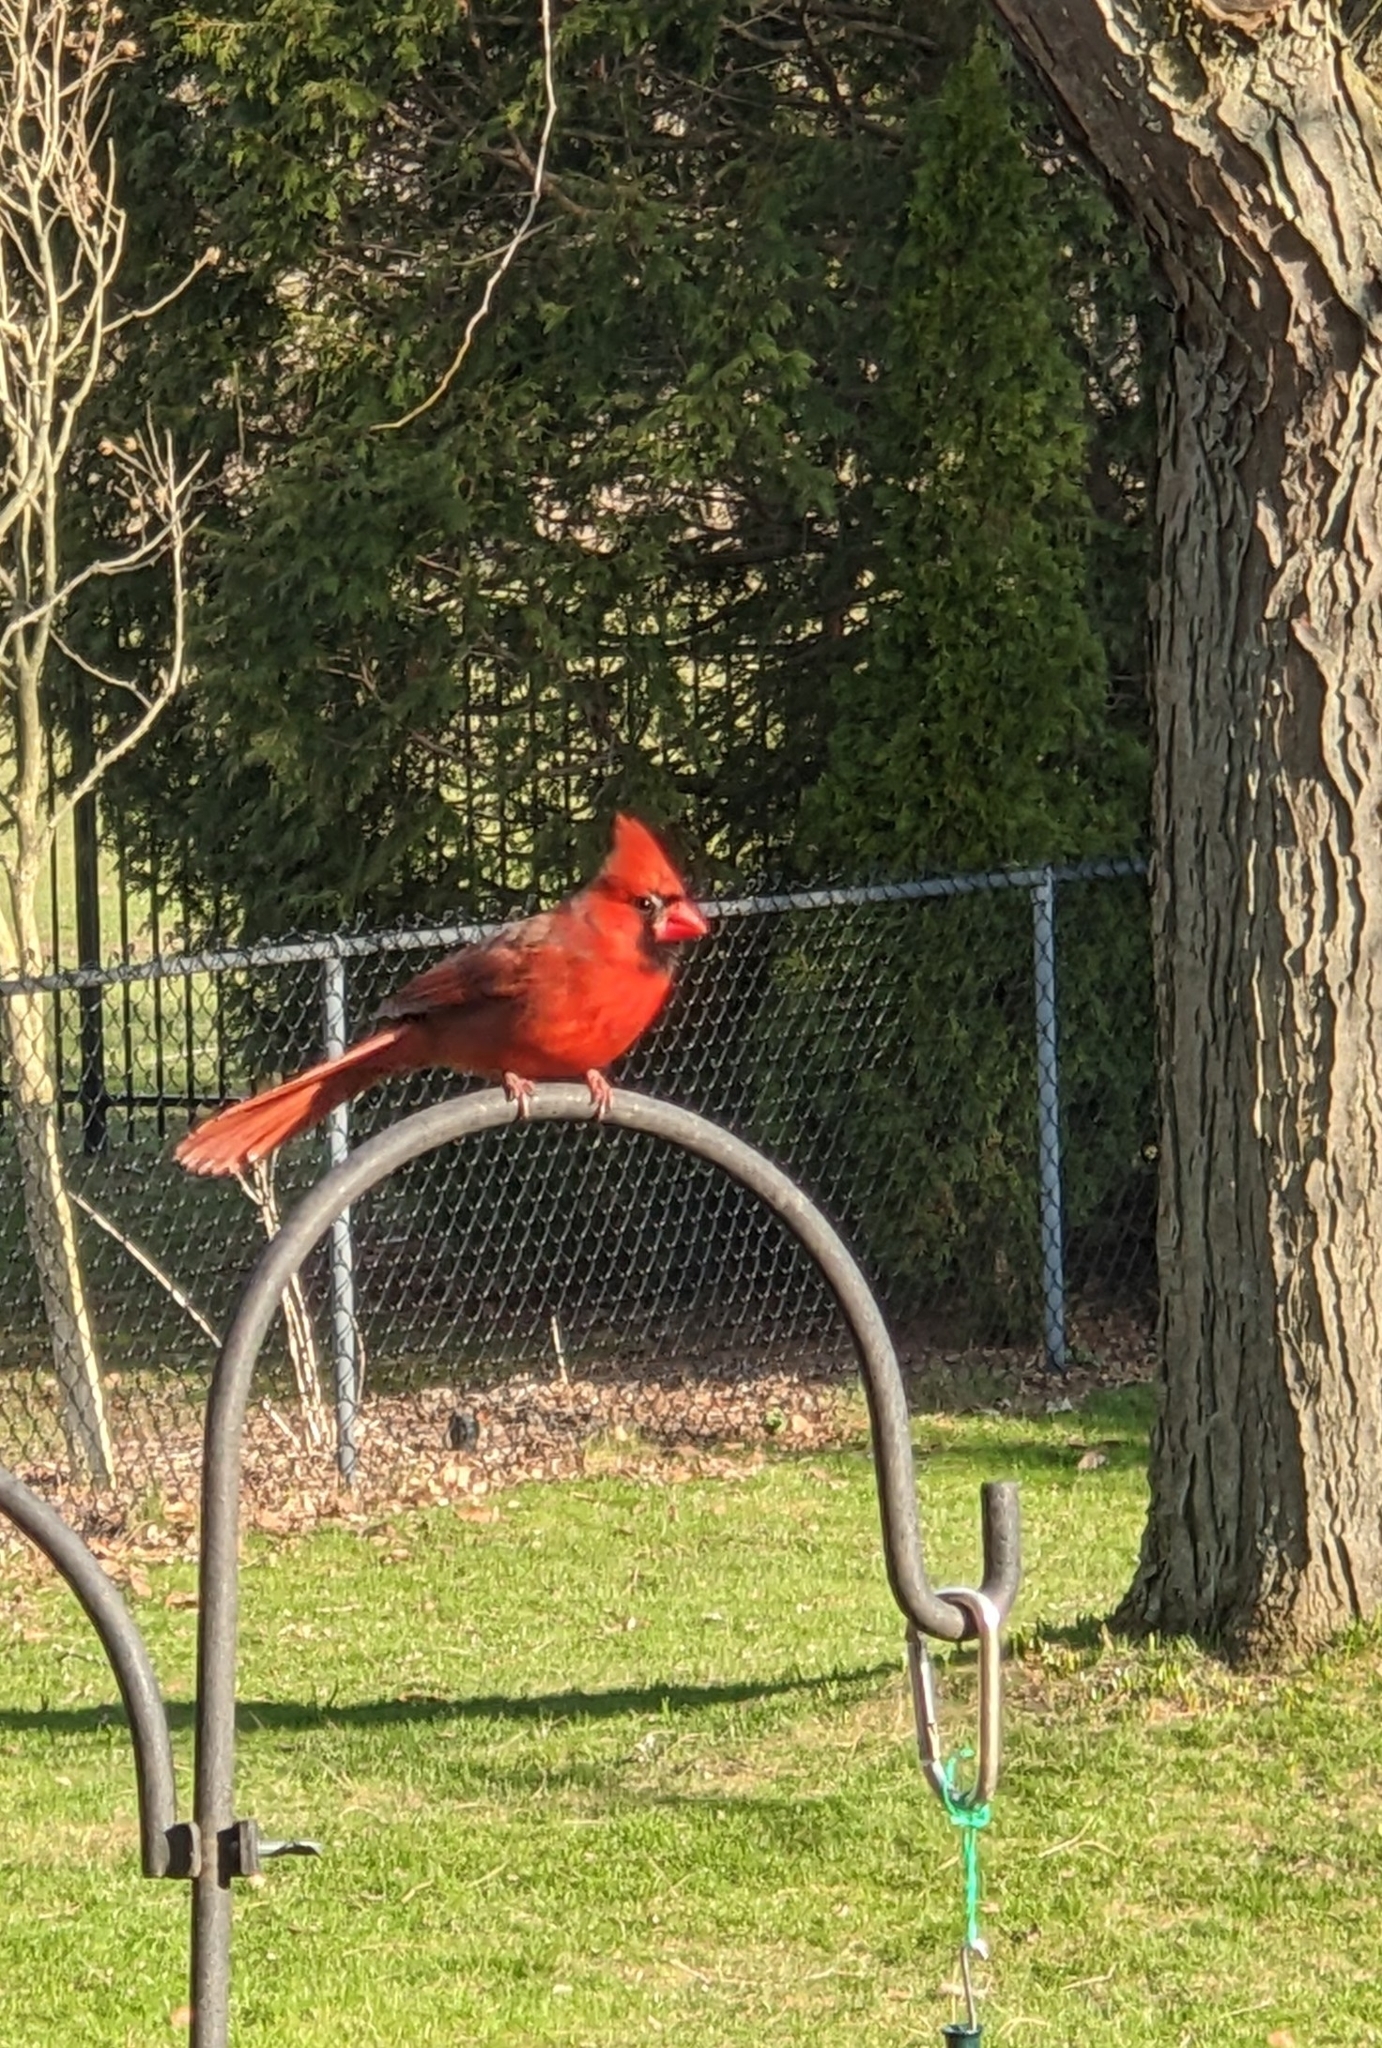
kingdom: Animalia
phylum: Chordata
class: Aves
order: Passeriformes
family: Cardinalidae
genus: Cardinalis
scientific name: Cardinalis cardinalis
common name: Northern cardinal
